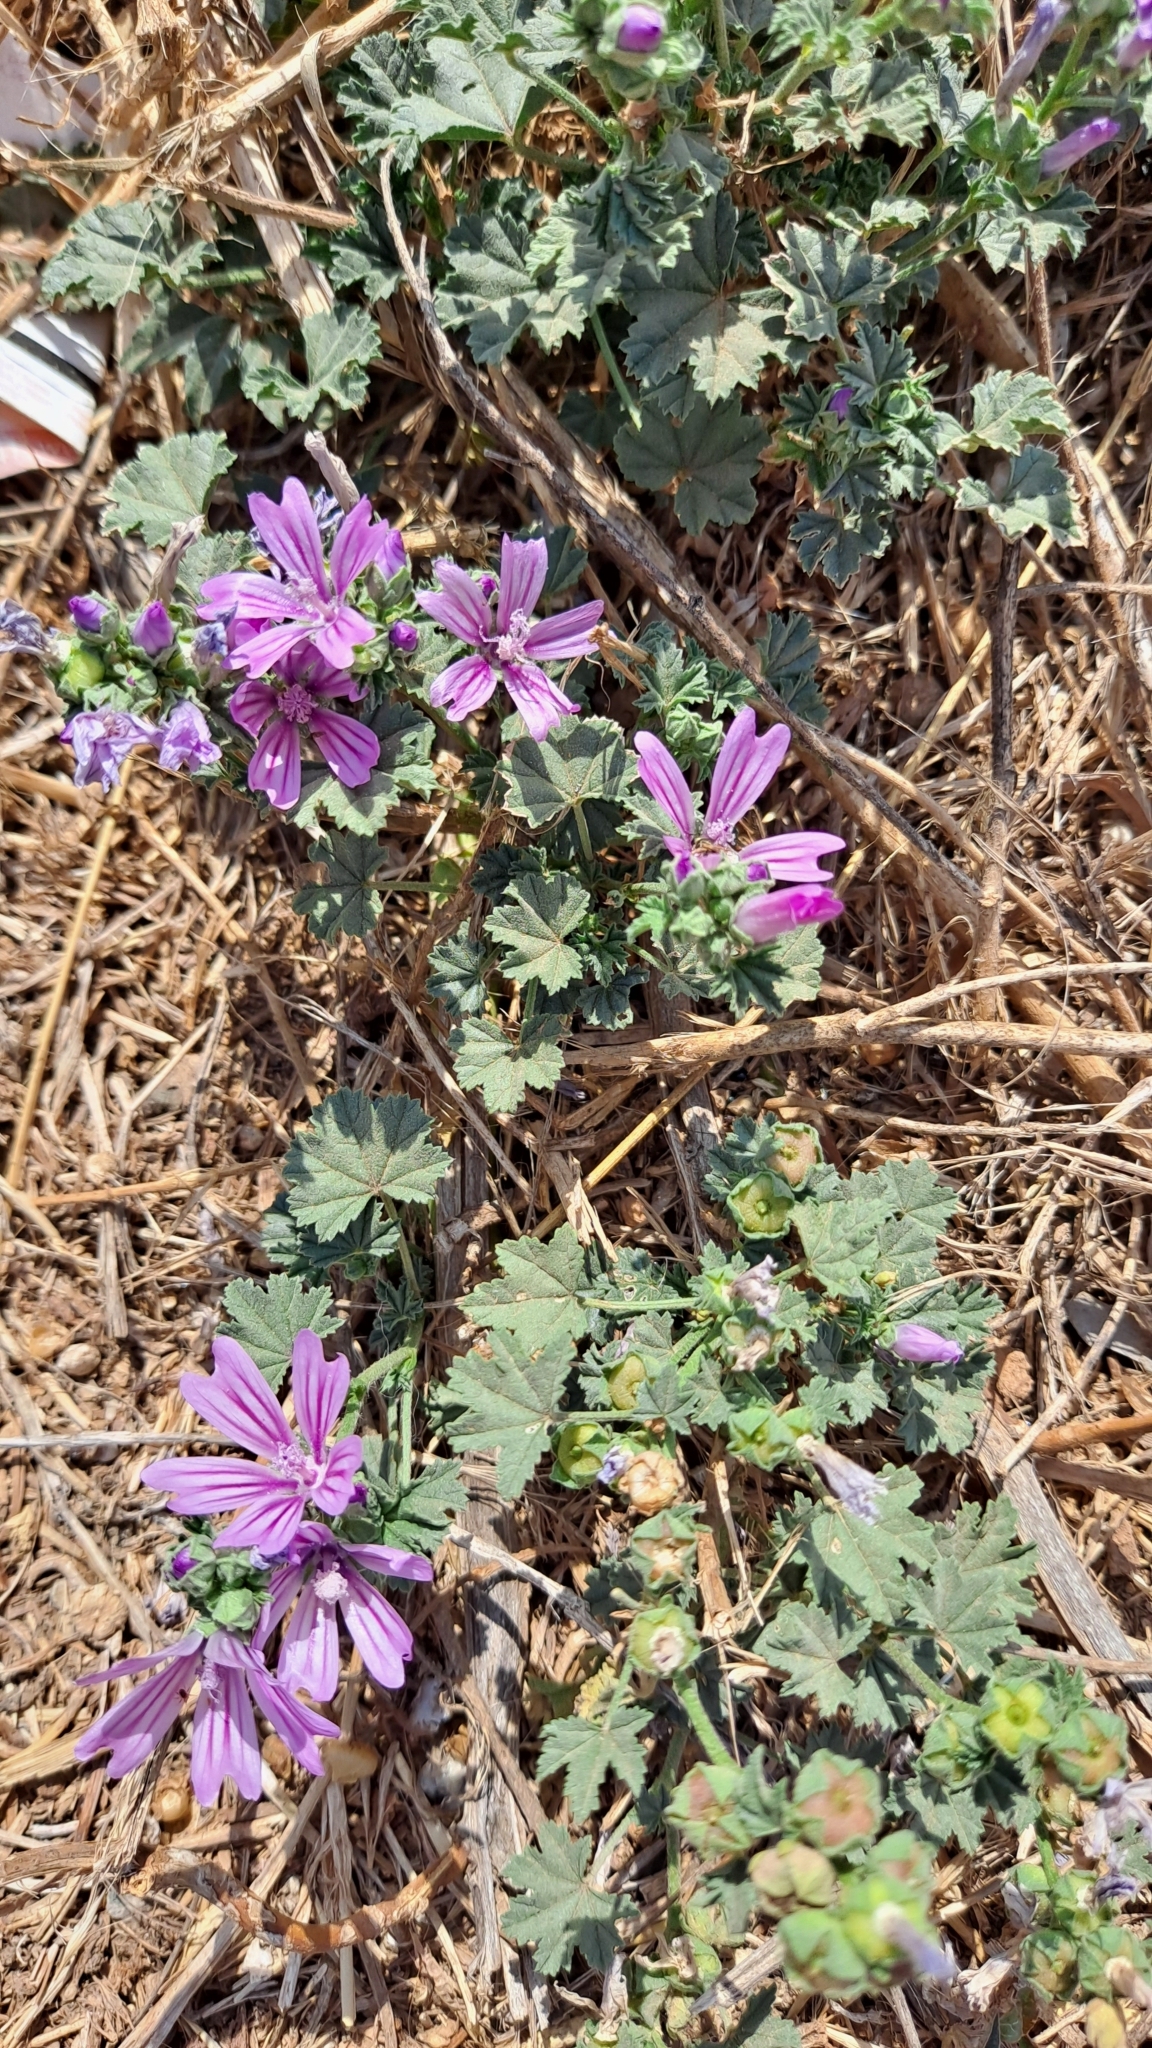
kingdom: Plantae
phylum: Tracheophyta
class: Magnoliopsida
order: Malvales
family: Malvaceae
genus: Malva
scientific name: Malva sylvestris
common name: Common mallow
